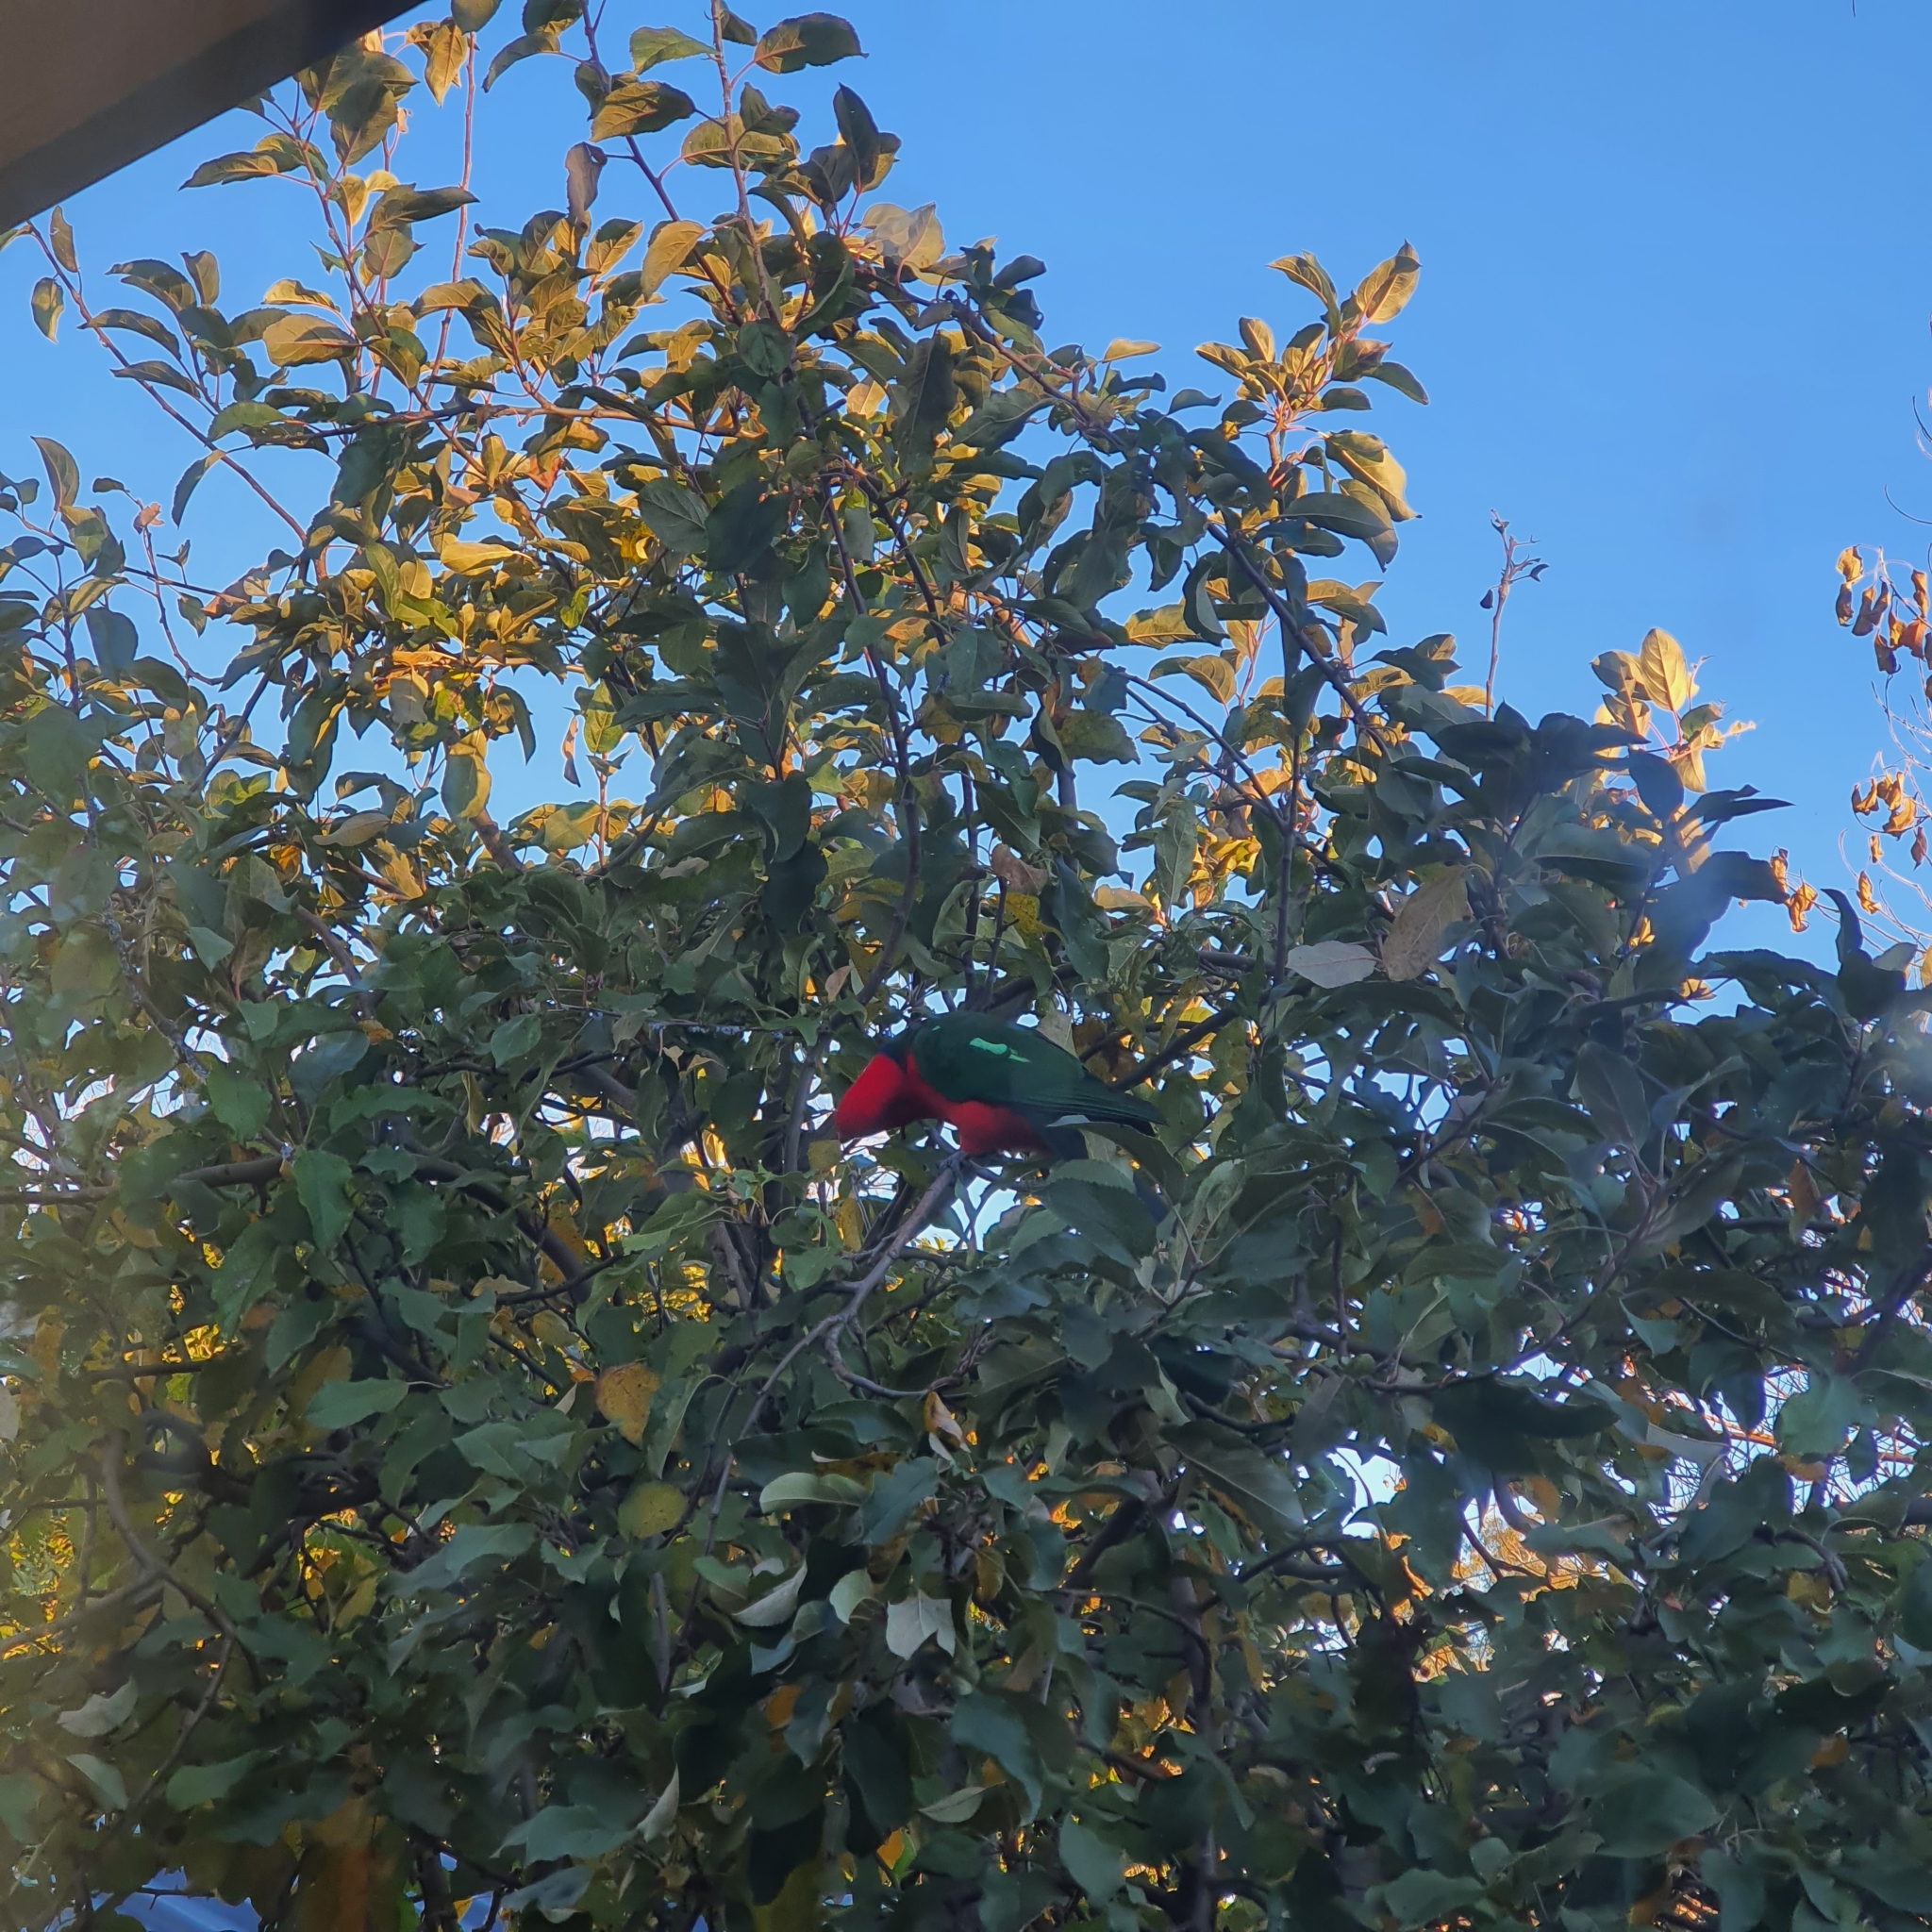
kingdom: Animalia
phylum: Chordata
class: Aves
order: Psittaciformes
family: Psittacidae
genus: Alisterus
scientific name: Alisterus scapularis
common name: Australian king parrot
